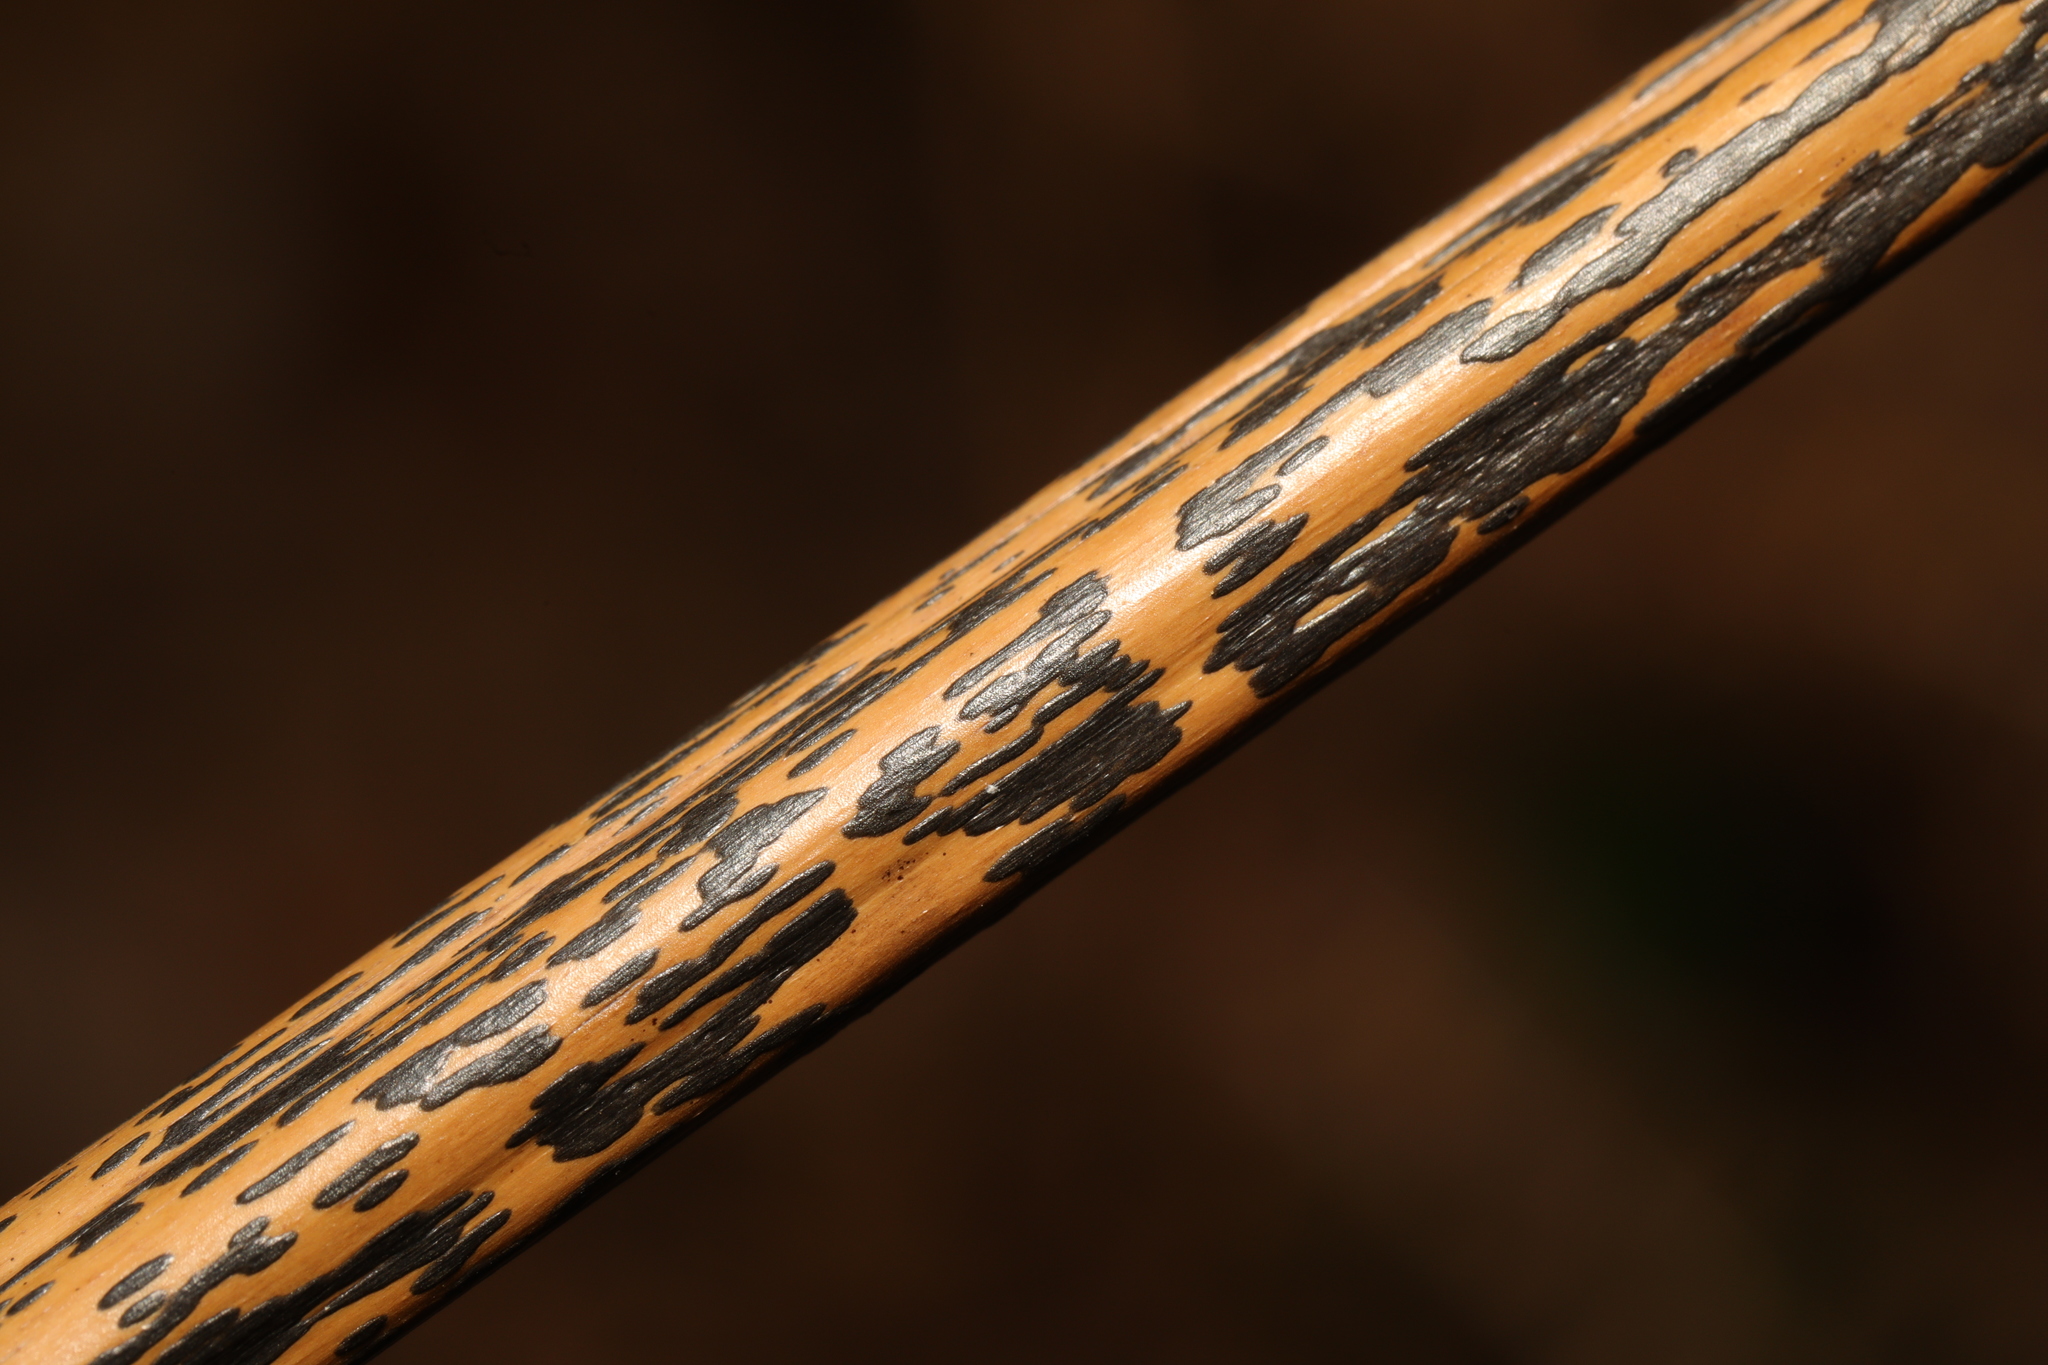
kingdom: Fungi
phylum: Ascomycota
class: Dothideomycetes
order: Pleosporales
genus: Rhopographus
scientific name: Rhopographus filicinus
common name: Bracken map
